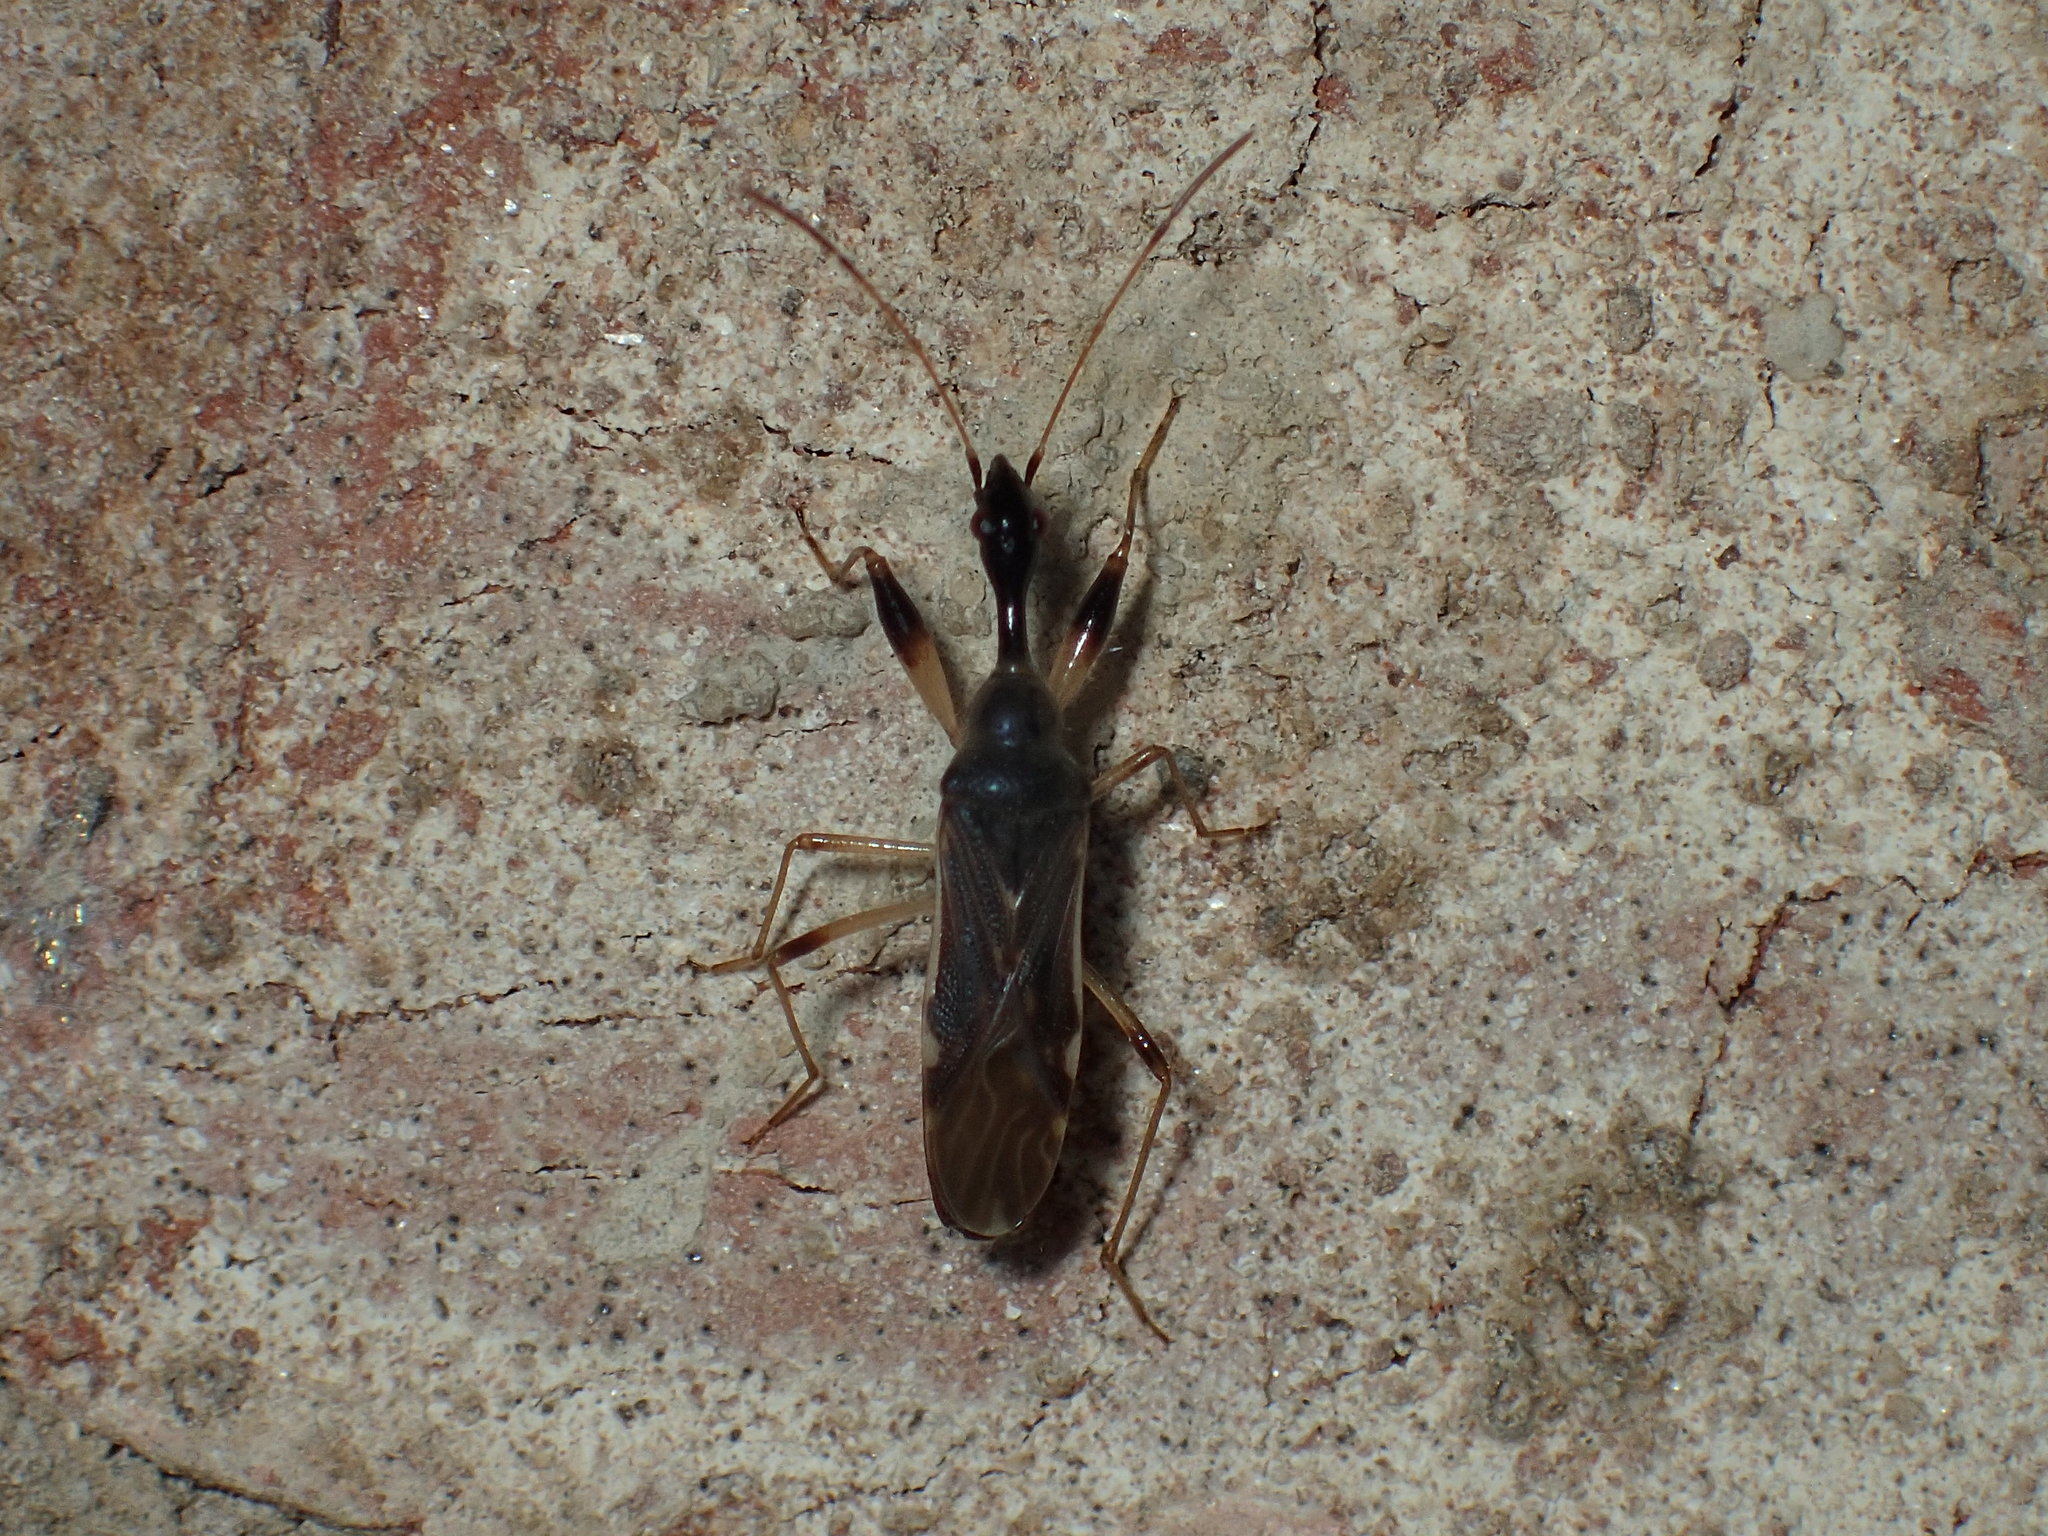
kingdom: Animalia
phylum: Arthropoda
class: Insecta
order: Hemiptera
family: Rhyparochromidae
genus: Myodocha
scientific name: Myodocha serripes
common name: Long-necked seed bug
